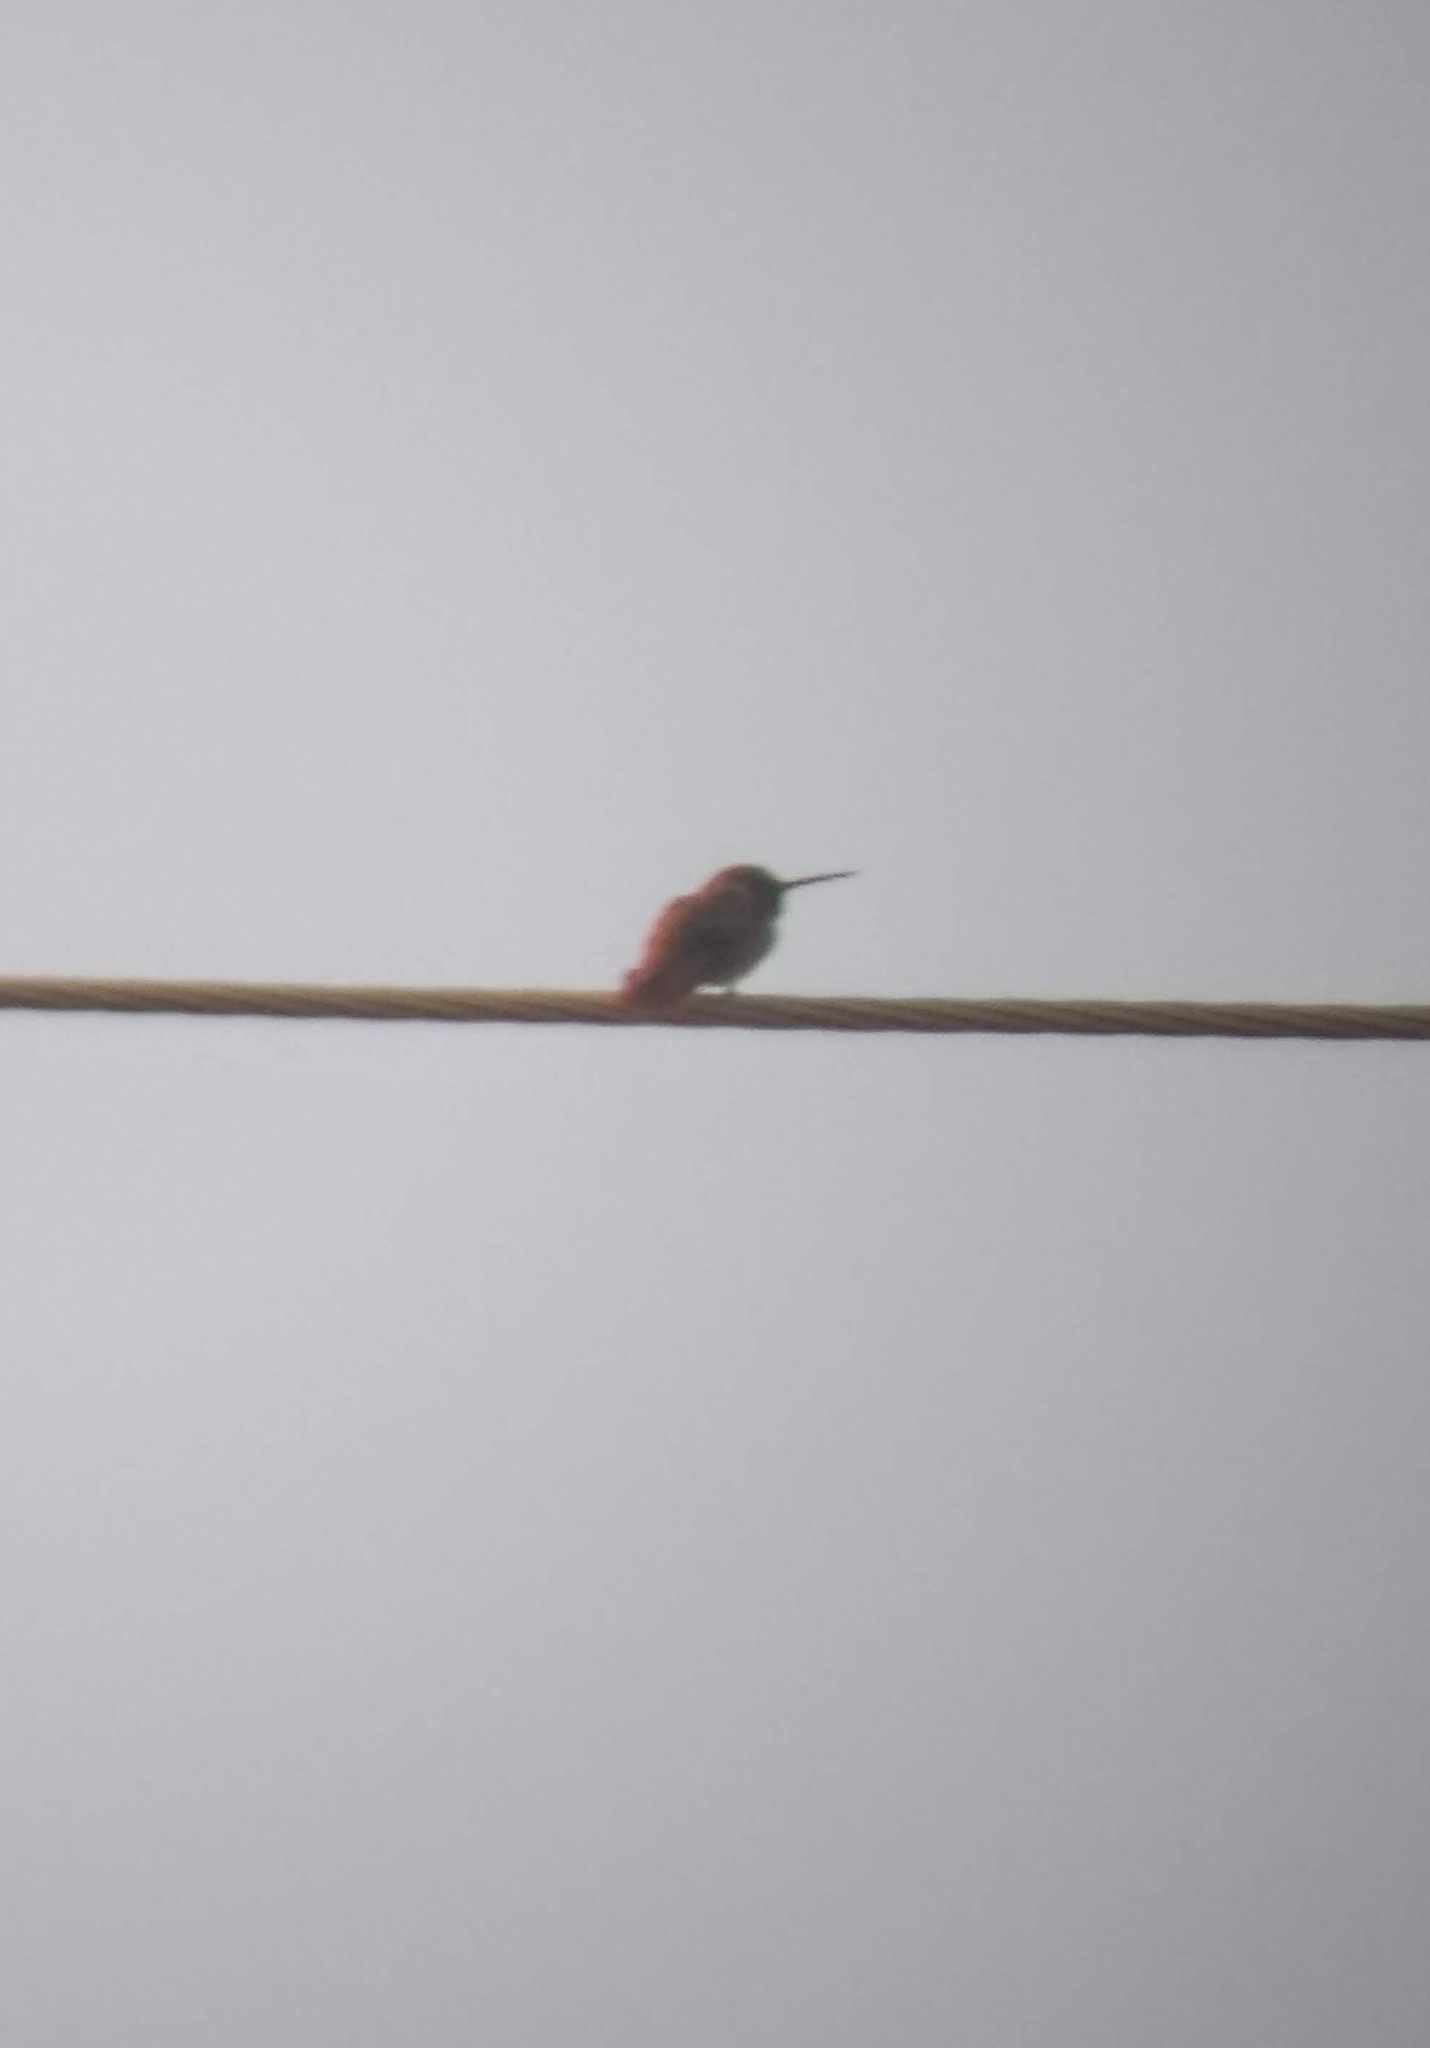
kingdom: Animalia
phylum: Chordata
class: Aves
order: Apodiformes
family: Trochilidae
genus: Selasphorus
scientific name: Selasphorus sasin
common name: Allen's hummingbird
